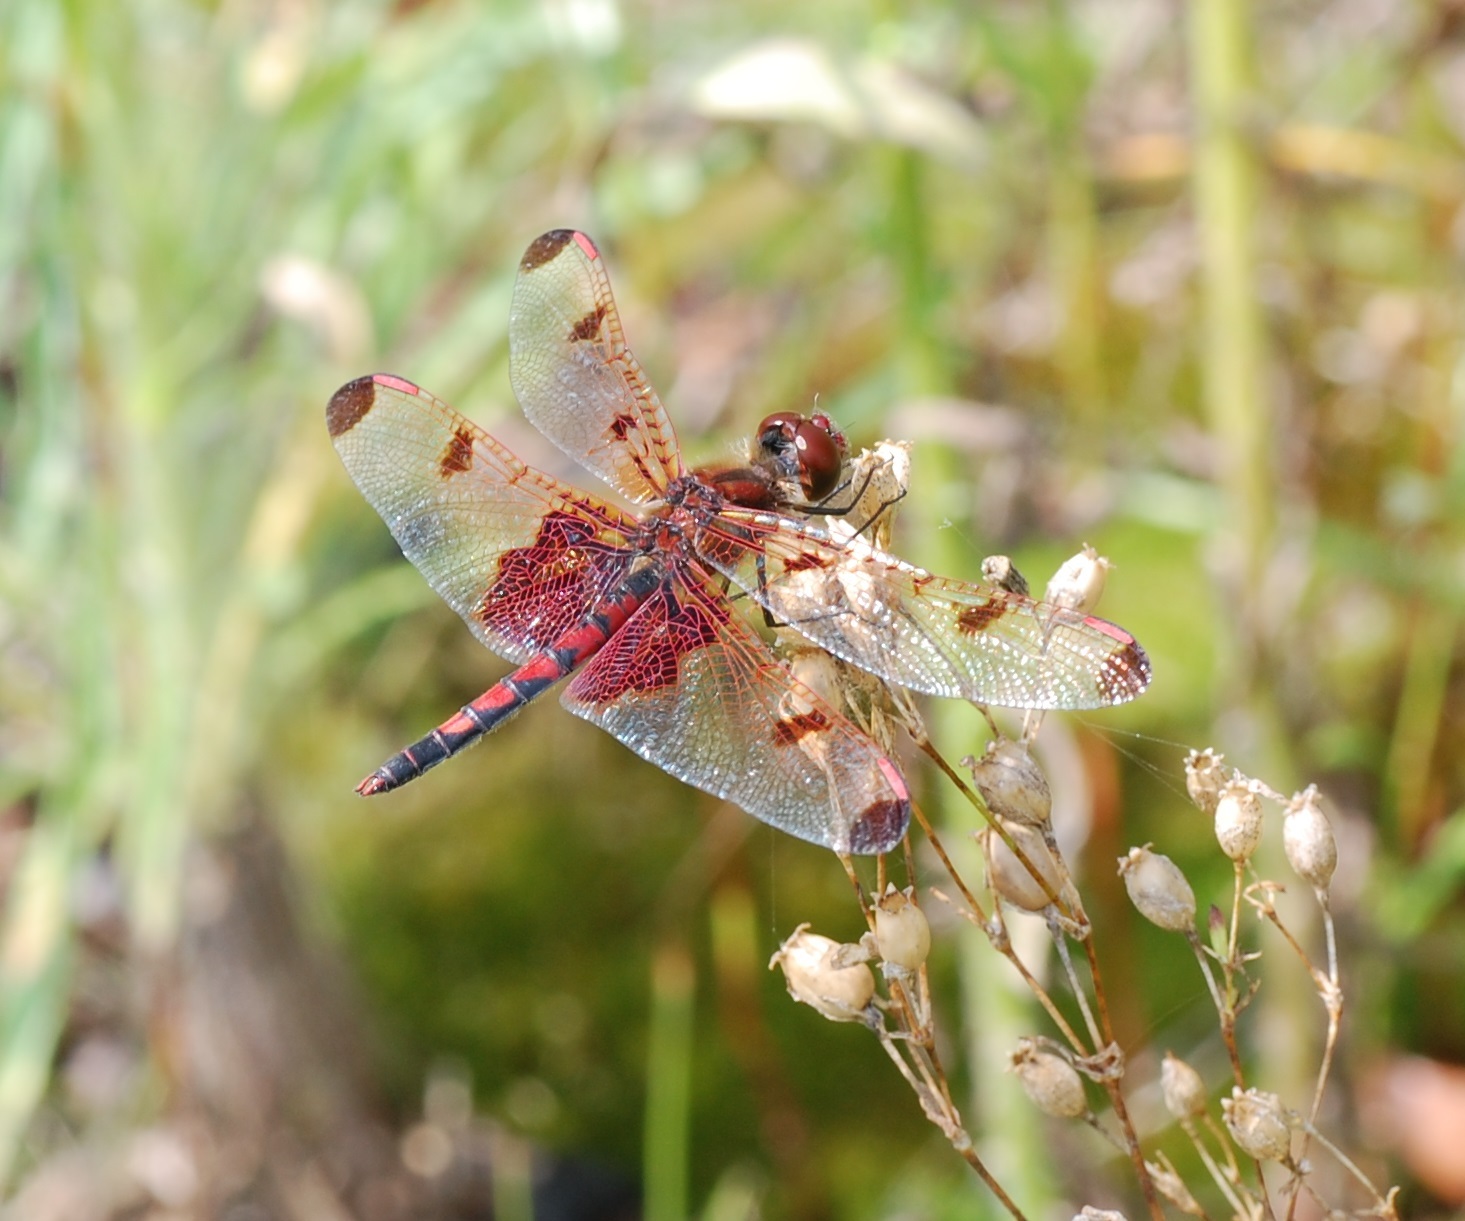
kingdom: Animalia
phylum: Arthropoda
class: Insecta
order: Odonata
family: Libellulidae
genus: Celithemis
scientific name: Celithemis elisa
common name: Calico pennant
